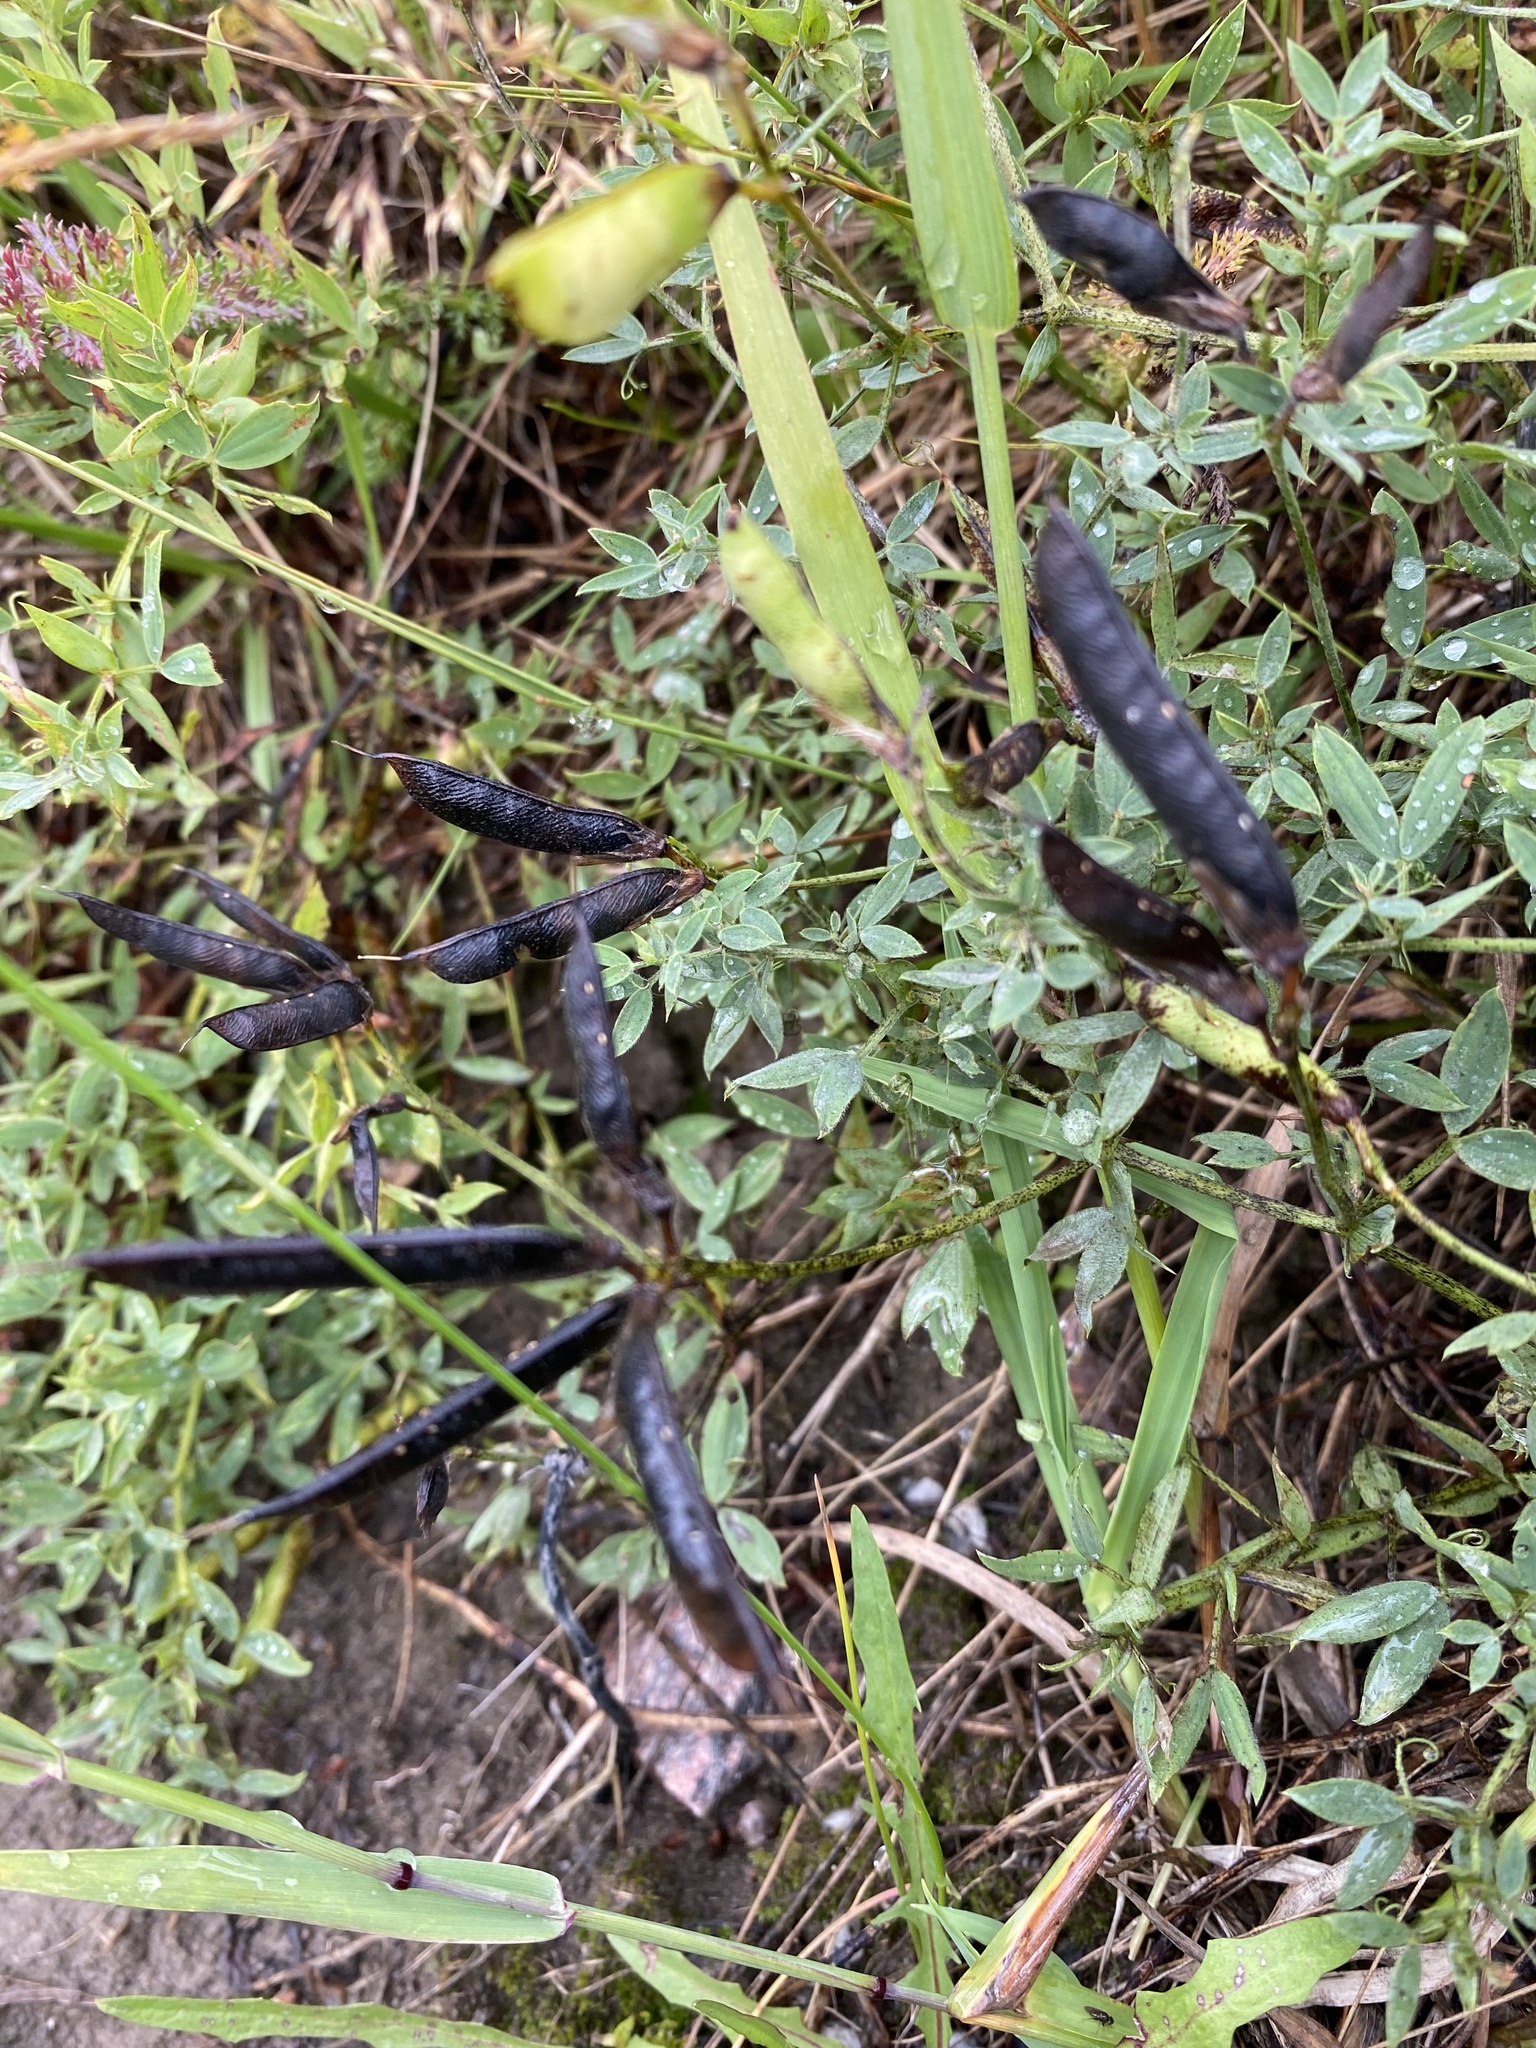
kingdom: Plantae
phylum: Tracheophyta
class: Magnoliopsida
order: Fabales
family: Fabaceae
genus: Lathyrus
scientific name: Lathyrus pratensis
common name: Meadow vetchling
